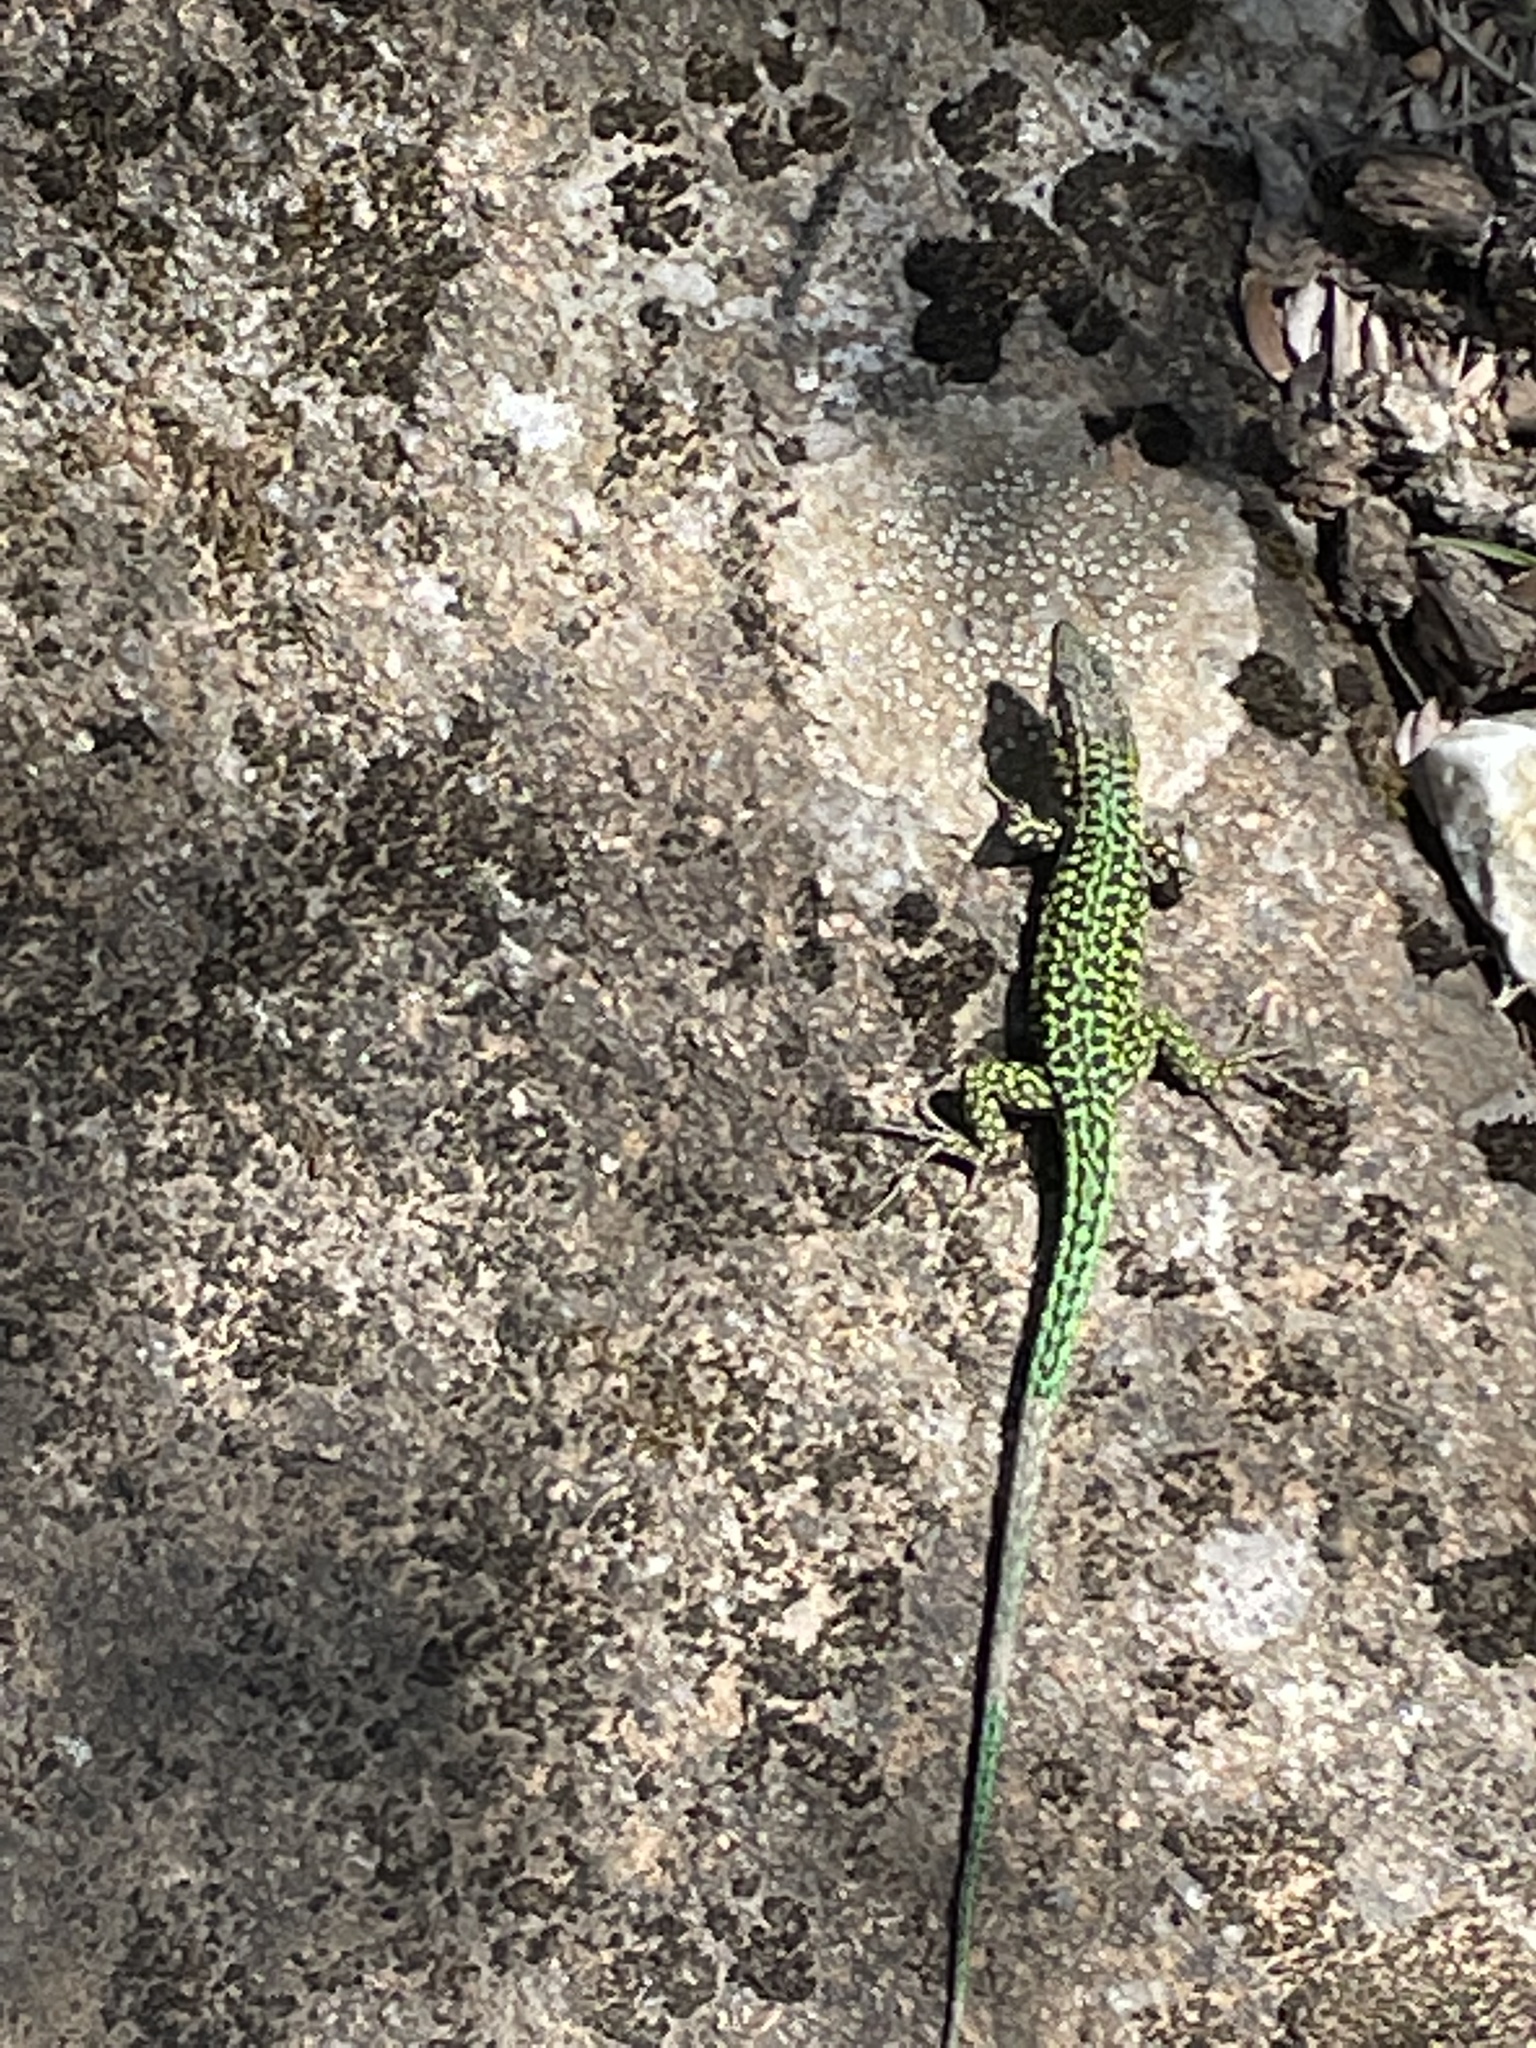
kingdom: Animalia
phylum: Chordata
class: Squamata
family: Lacertidae
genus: Podarcis
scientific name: Podarcis tiliguerta
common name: Tyrrhenian wall lizard
